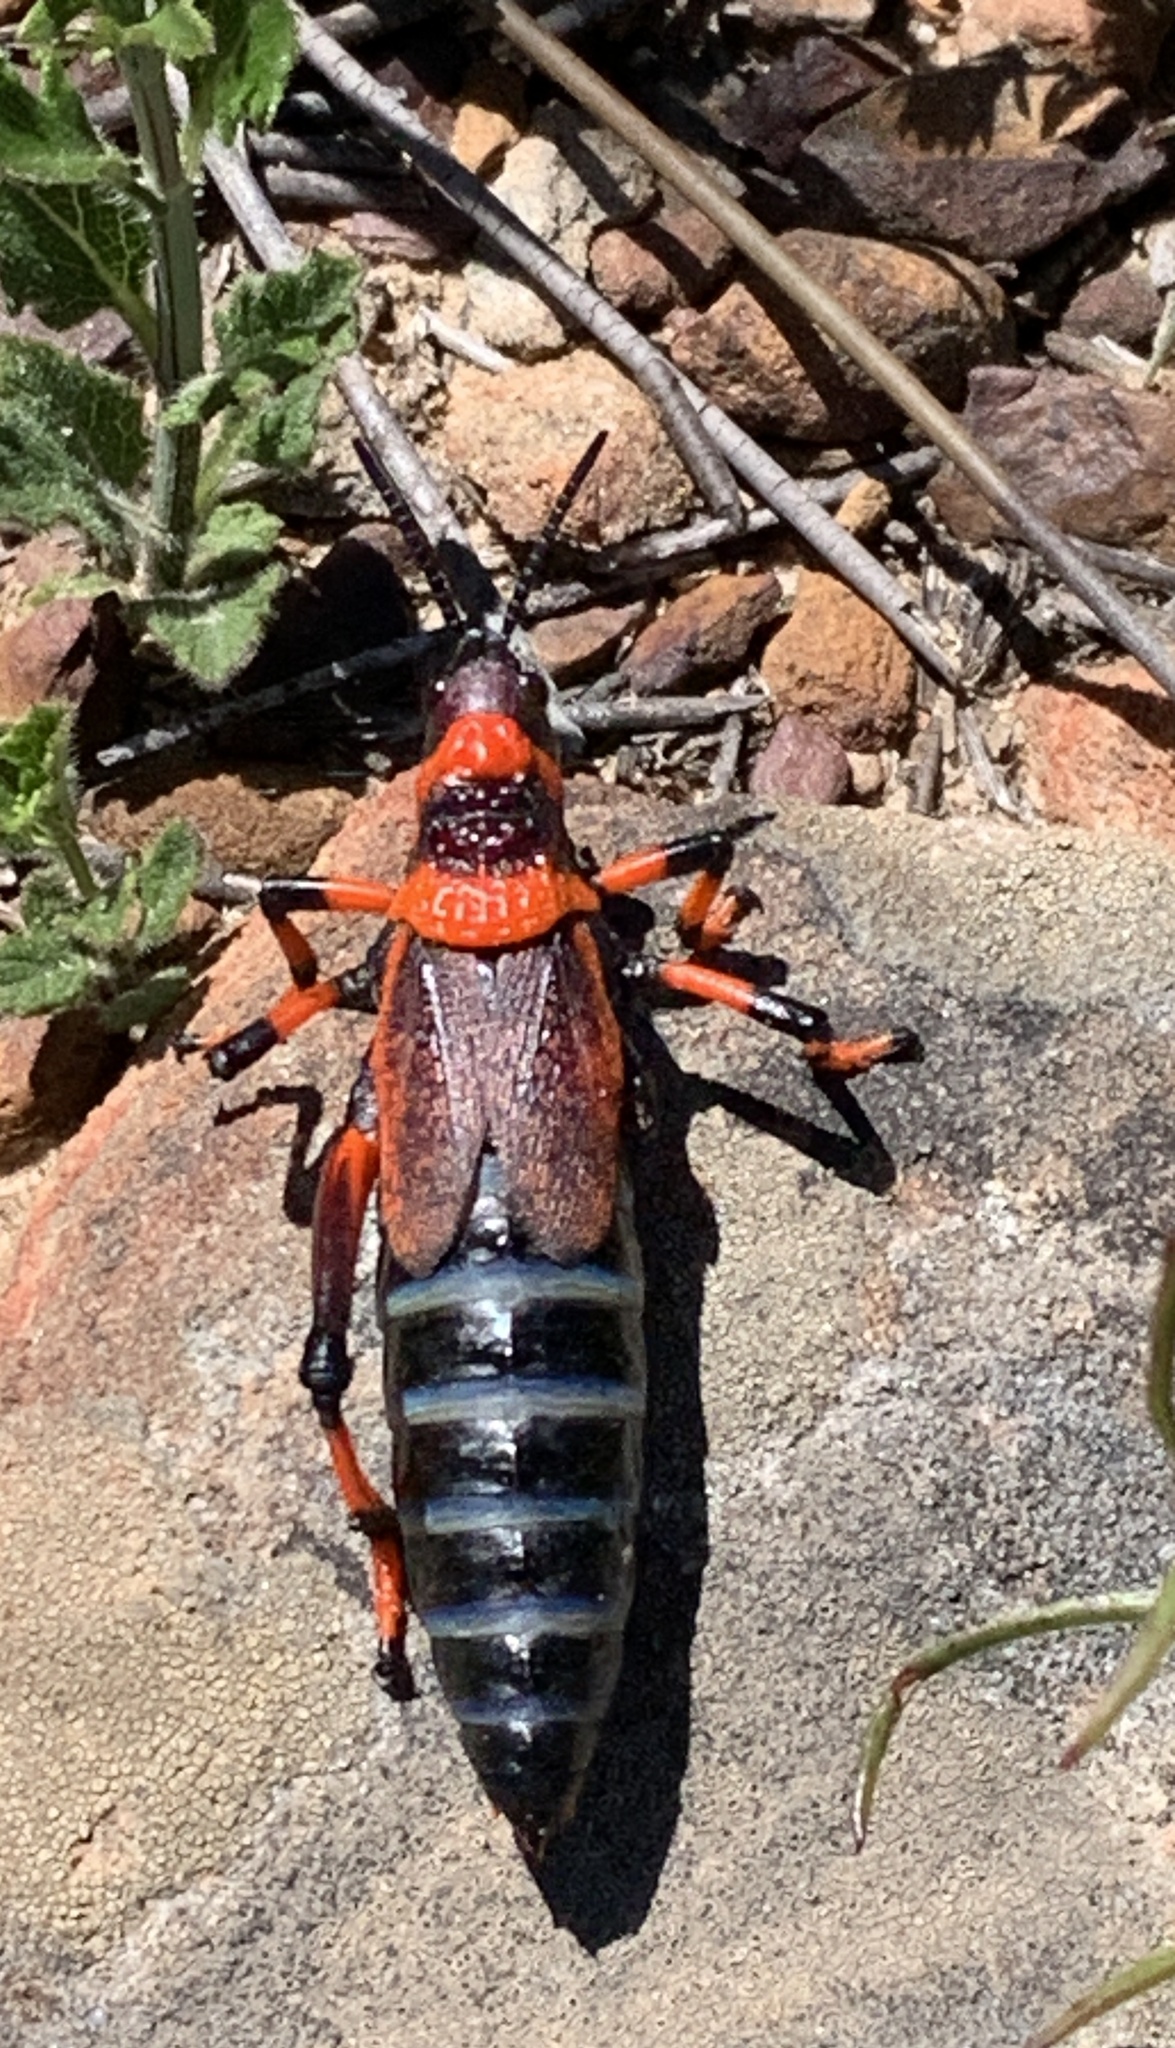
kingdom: Animalia
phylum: Arthropoda
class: Insecta
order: Orthoptera
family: Pyrgomorphidae
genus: Dictyophorus
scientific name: Dictyophorus spumans
